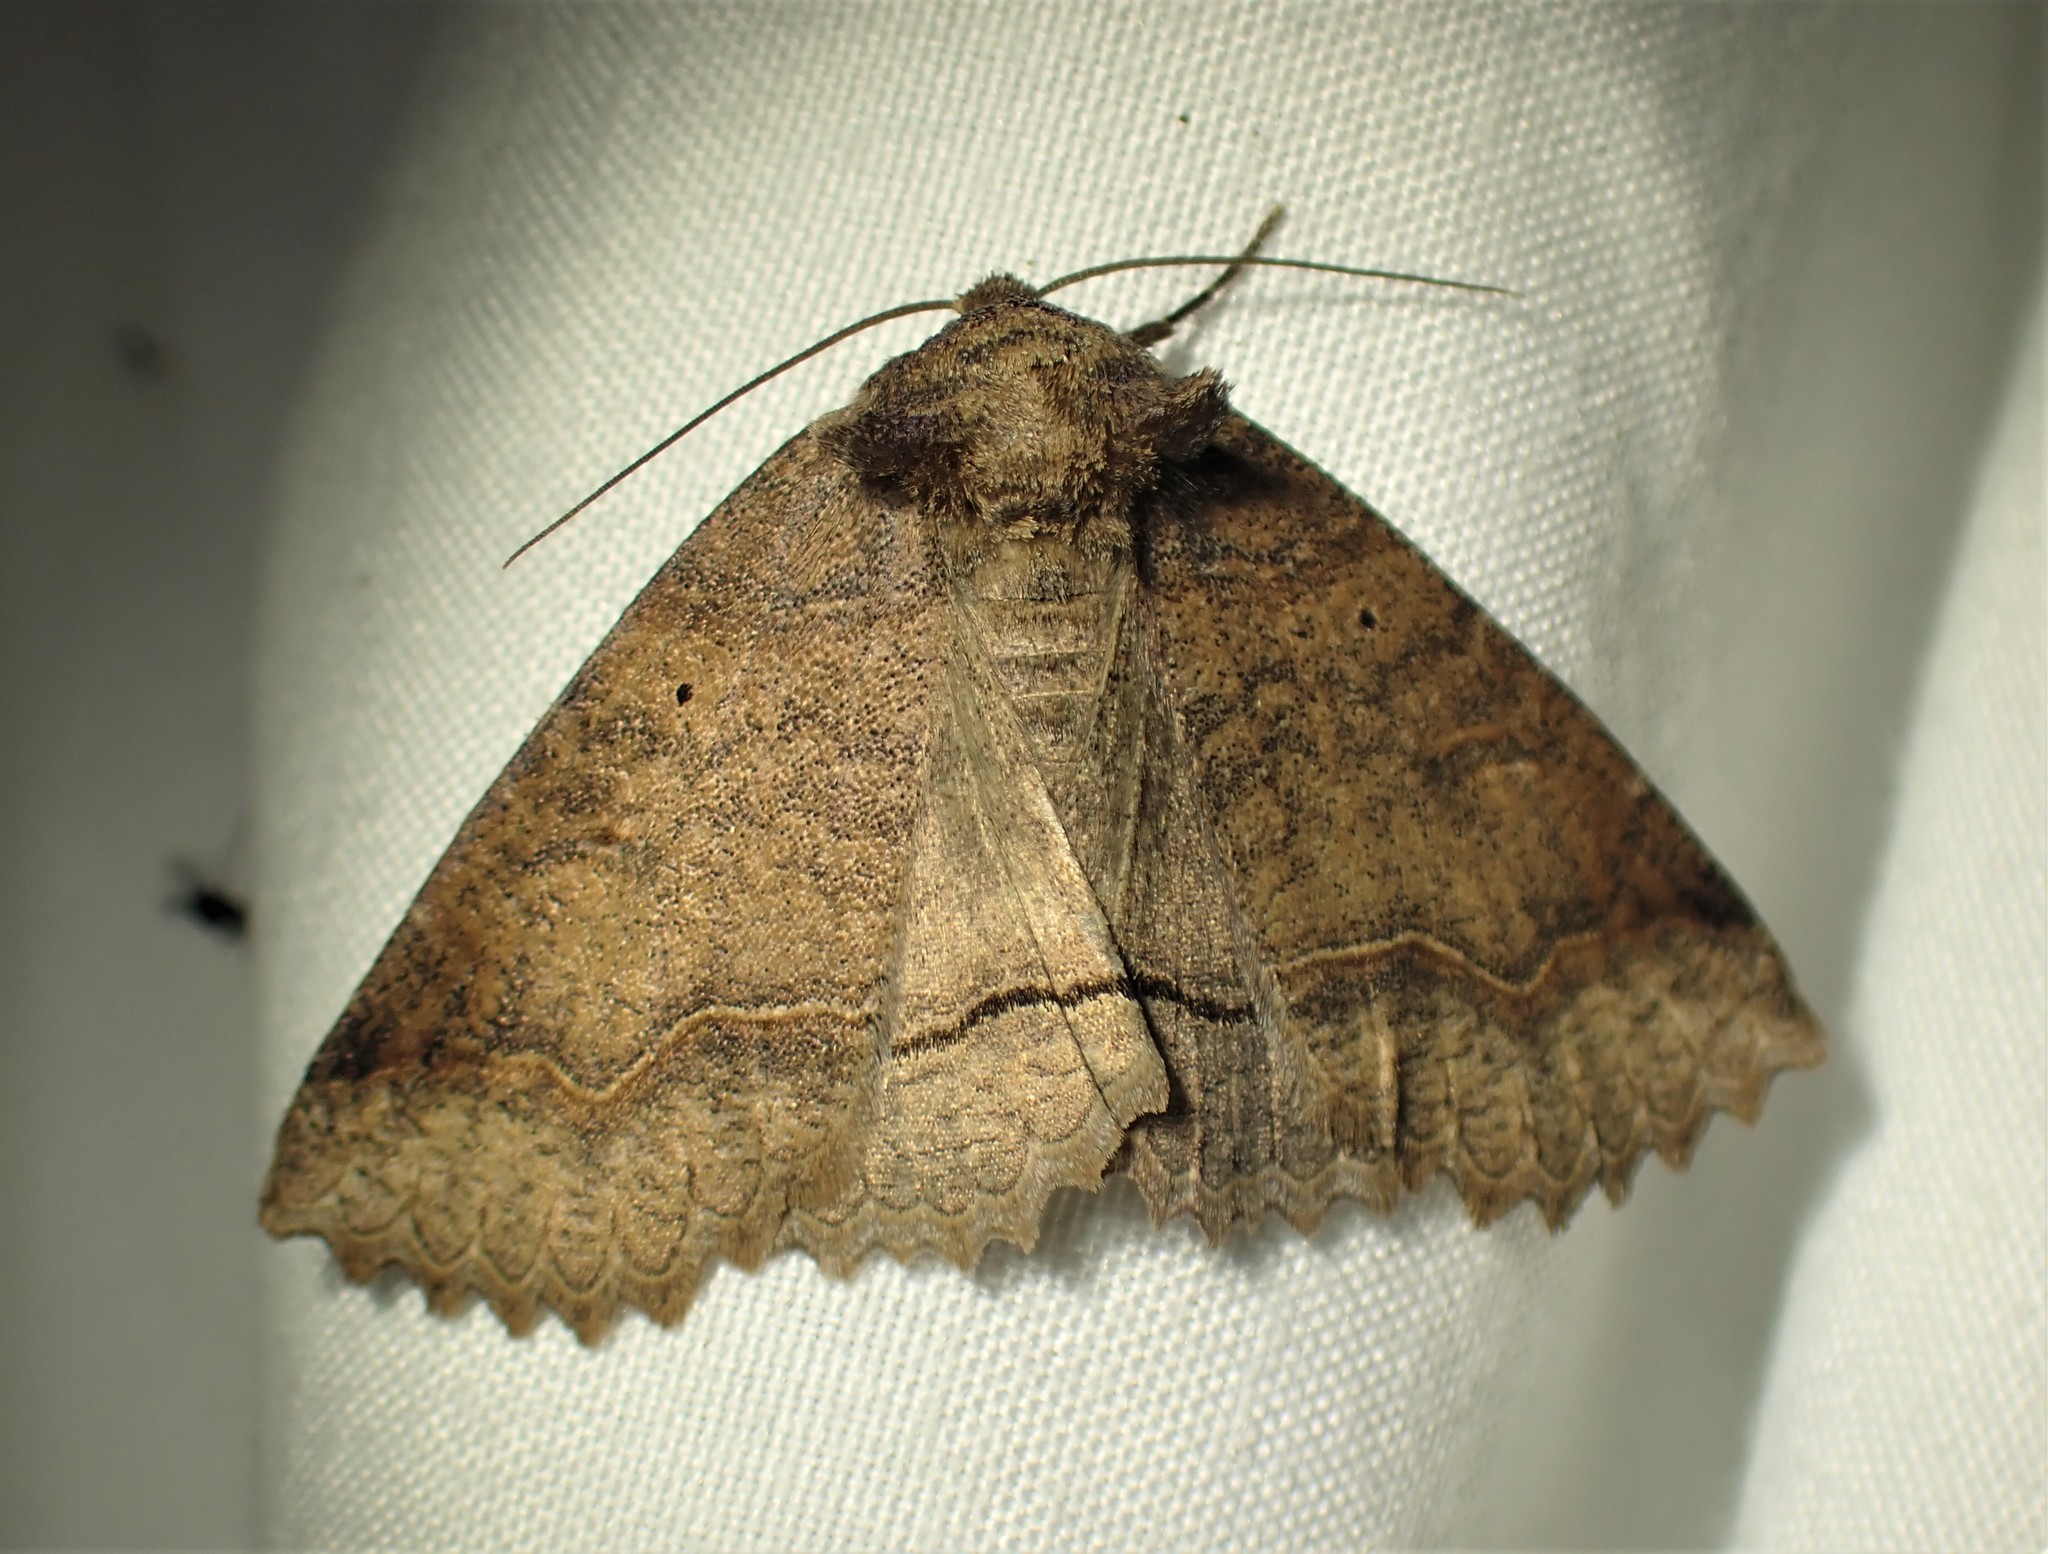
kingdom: Animalia
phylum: Arthropoda
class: Insecta
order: Lepidoptera
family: Erebidae
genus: Zale
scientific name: Zale unilineata
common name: One-lined zale moth
